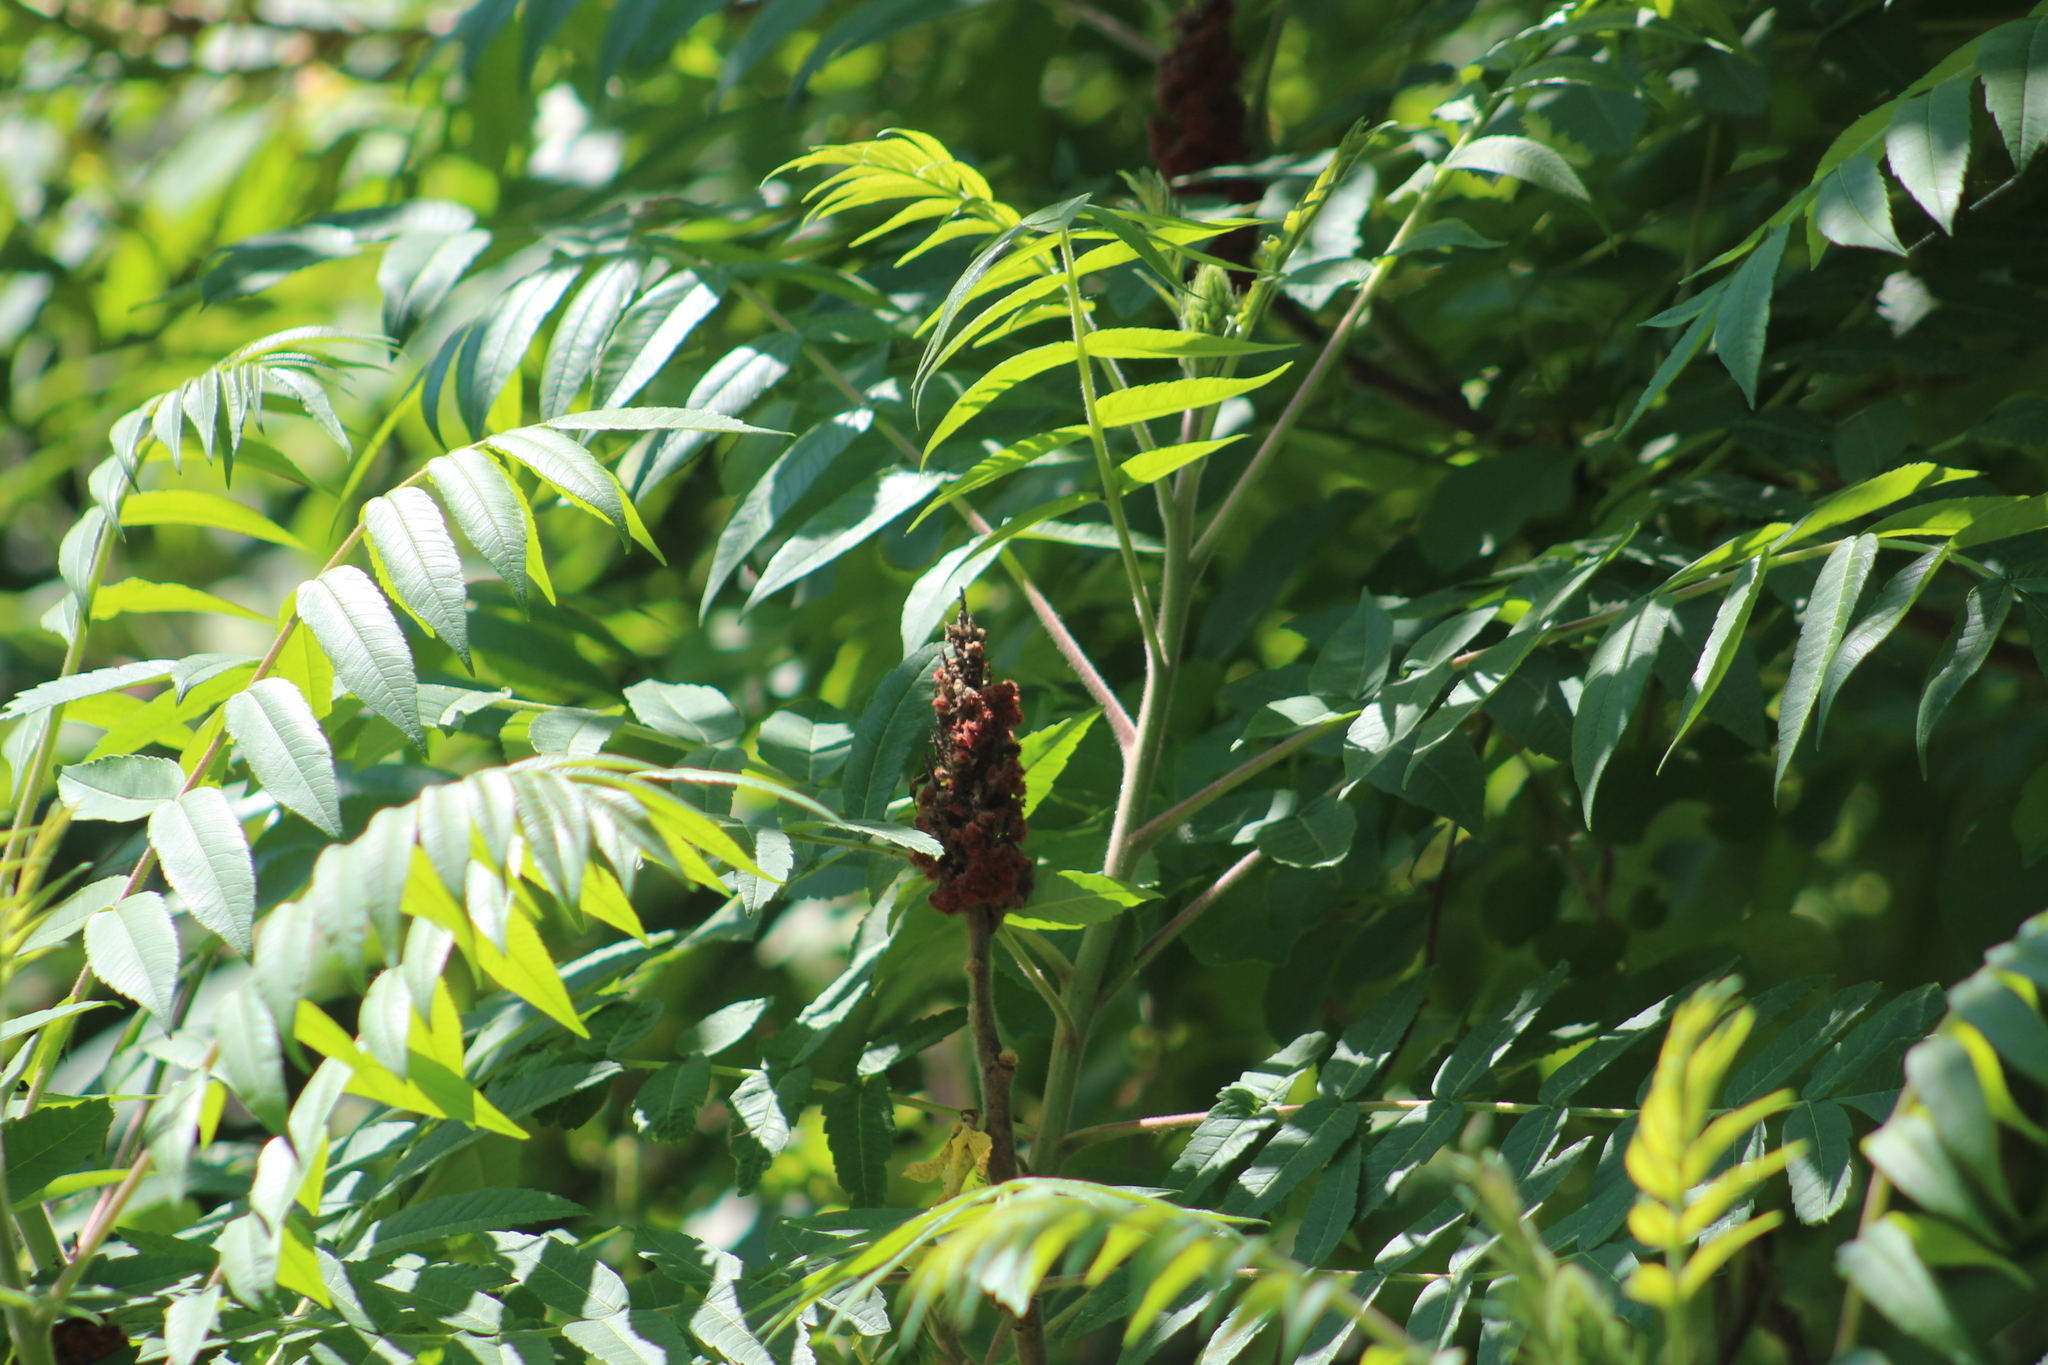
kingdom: Plantae
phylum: Tracheophyta
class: Magnoliopsida
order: Sapindales
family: Anacardiaceae
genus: Rhus
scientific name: Rhus typhina
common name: Staghorn sumac
